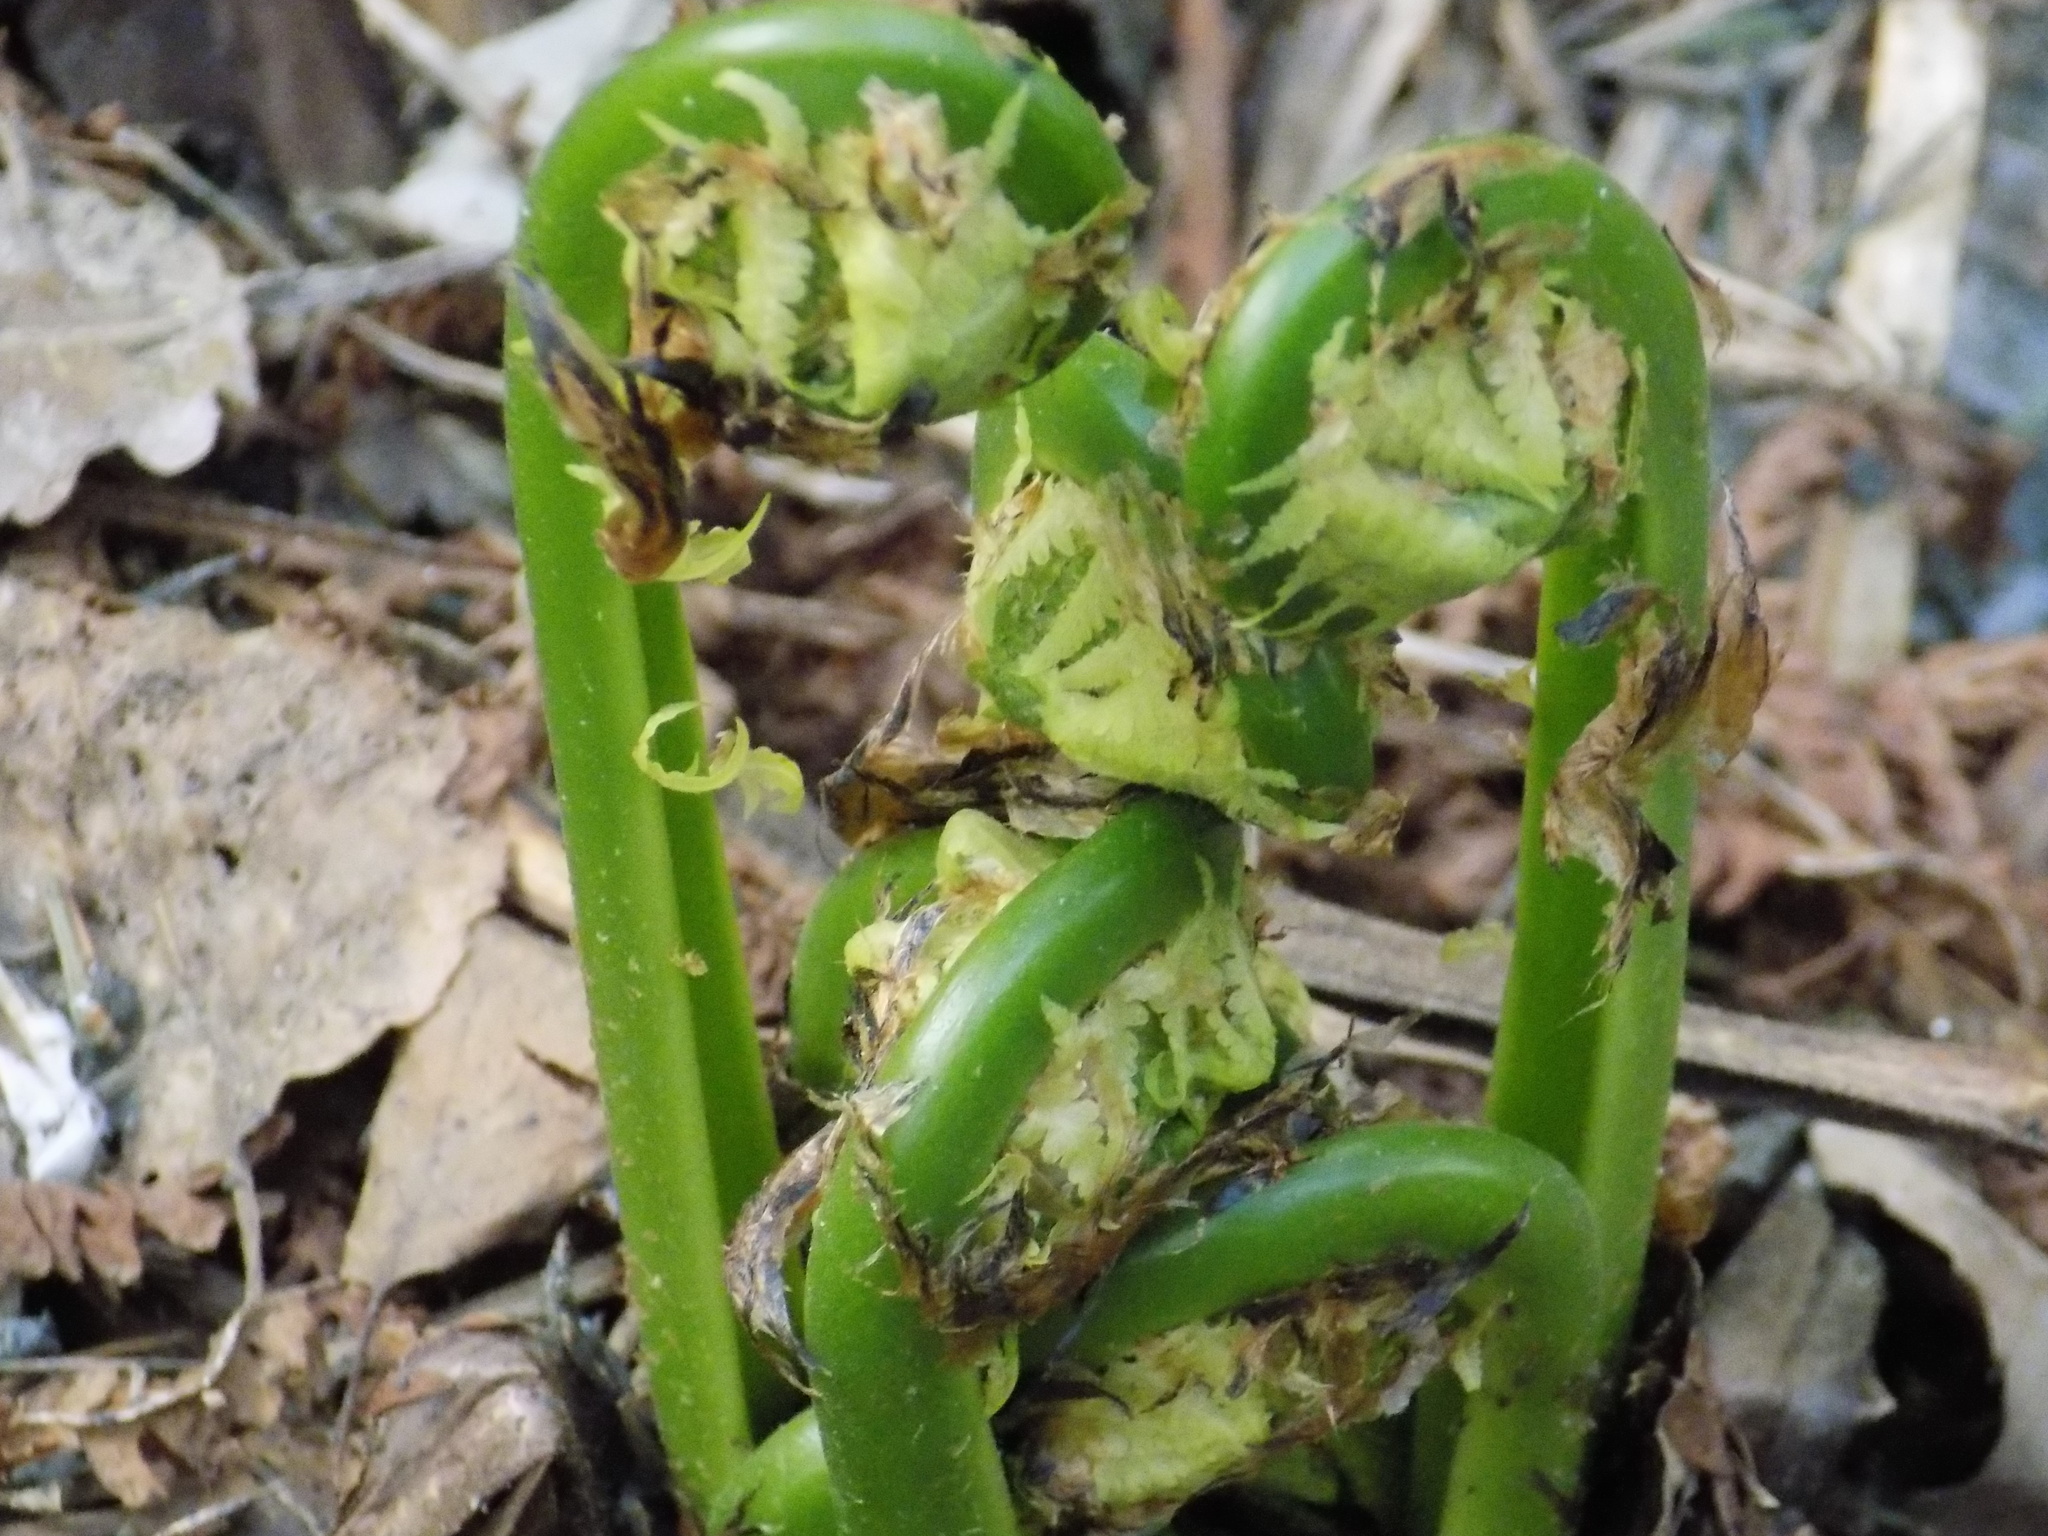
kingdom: Plantae
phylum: Tracheophyta
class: Polypodiopsida
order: Polypodiales
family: Onocleaceae
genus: Matteuccia
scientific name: Matteuccia struthiopteris
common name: Ostrich fern
